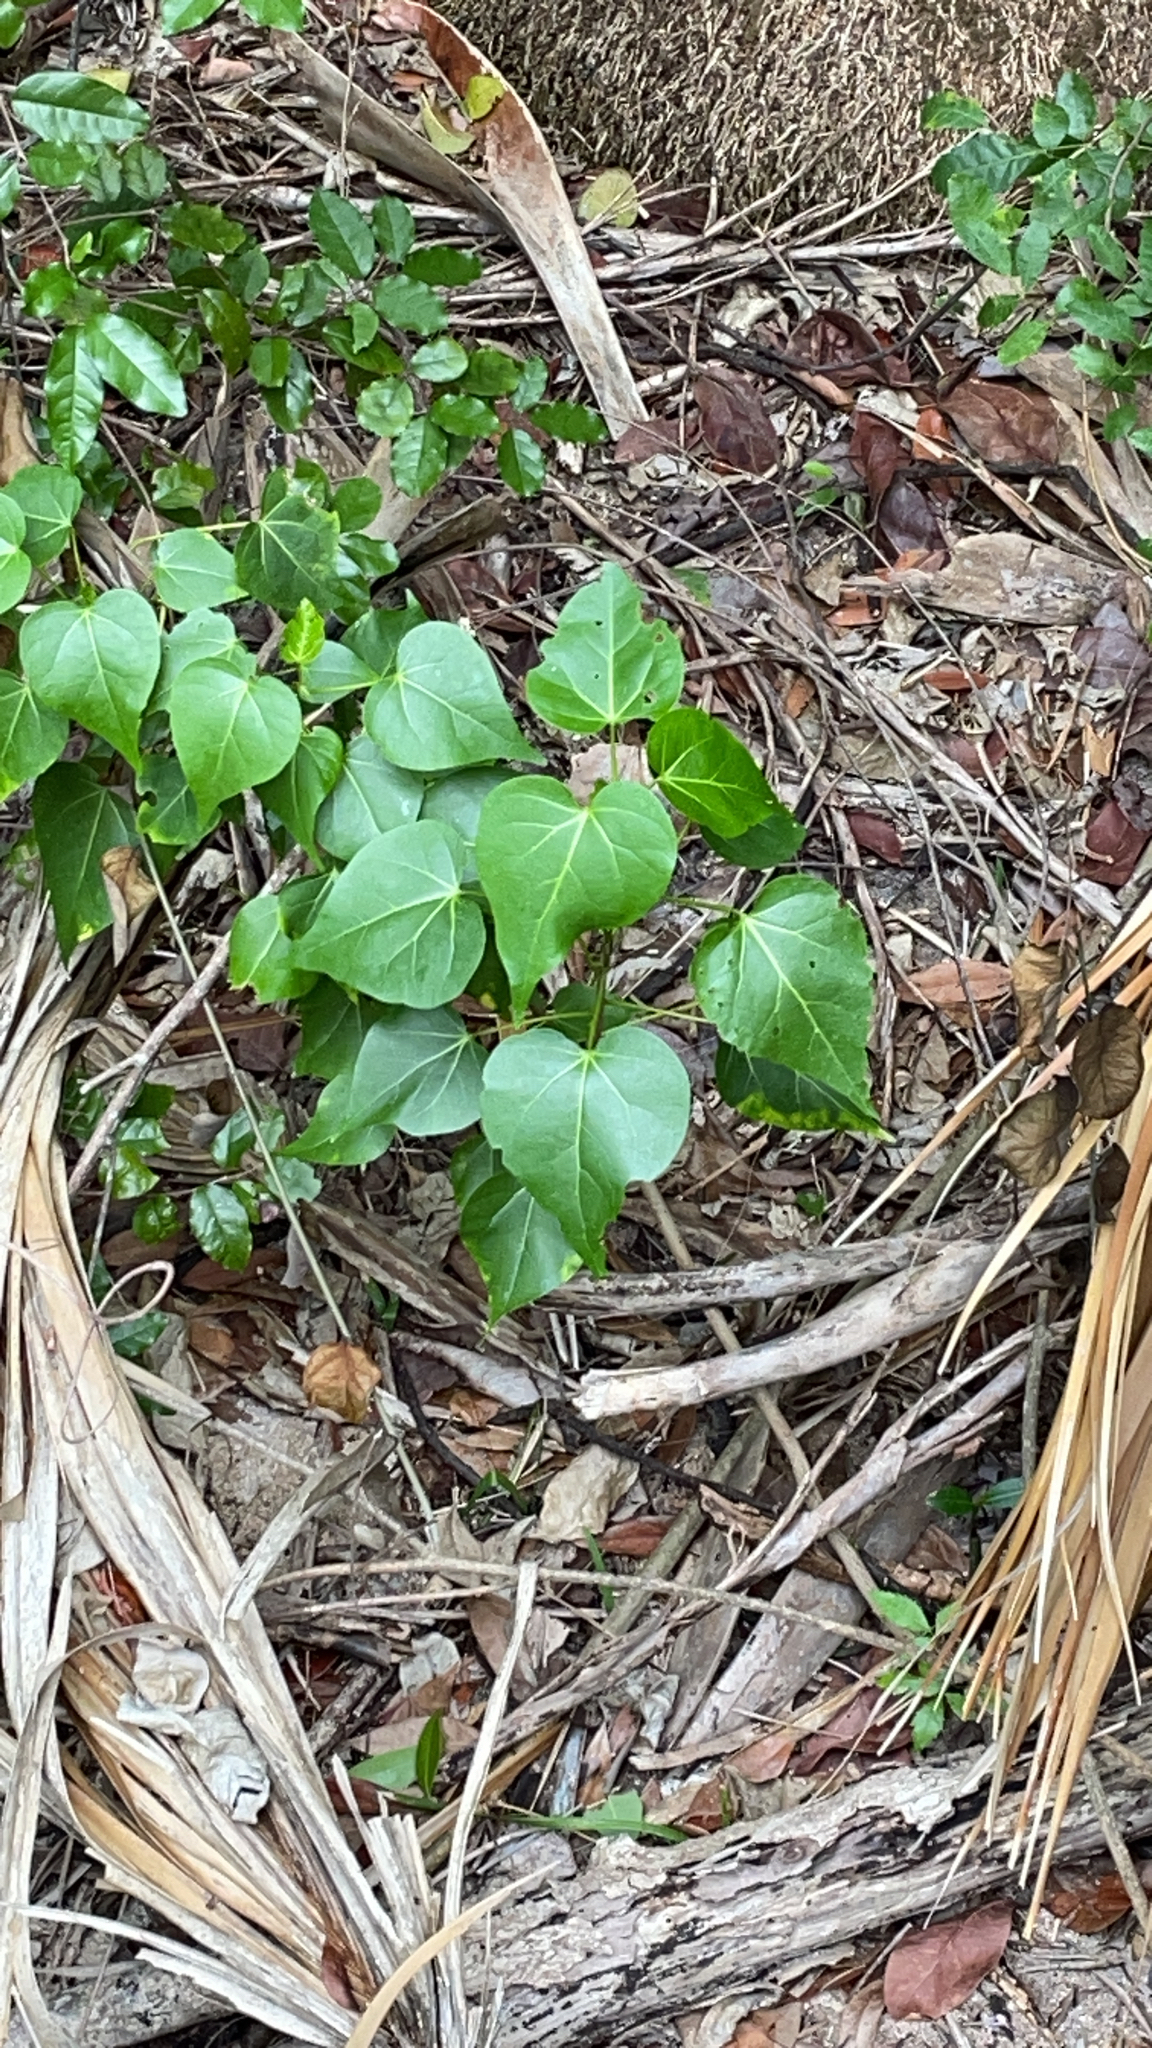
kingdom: Plantae
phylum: Tracheophyta
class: Magnoliopsida
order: Malvales
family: Malvaceae
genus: Thespesia
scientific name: Thespesia populnea
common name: Seaside mahoe
